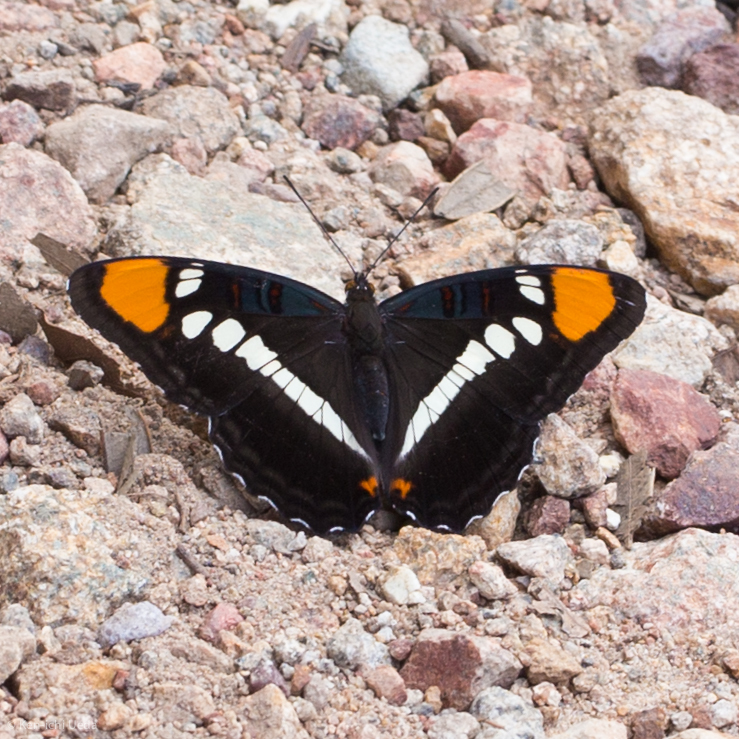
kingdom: Animalia
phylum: Arthropoda
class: Insecta
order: Lepidoptera
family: Nymphalidae
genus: Limenitis
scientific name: Limenitis bredowii
